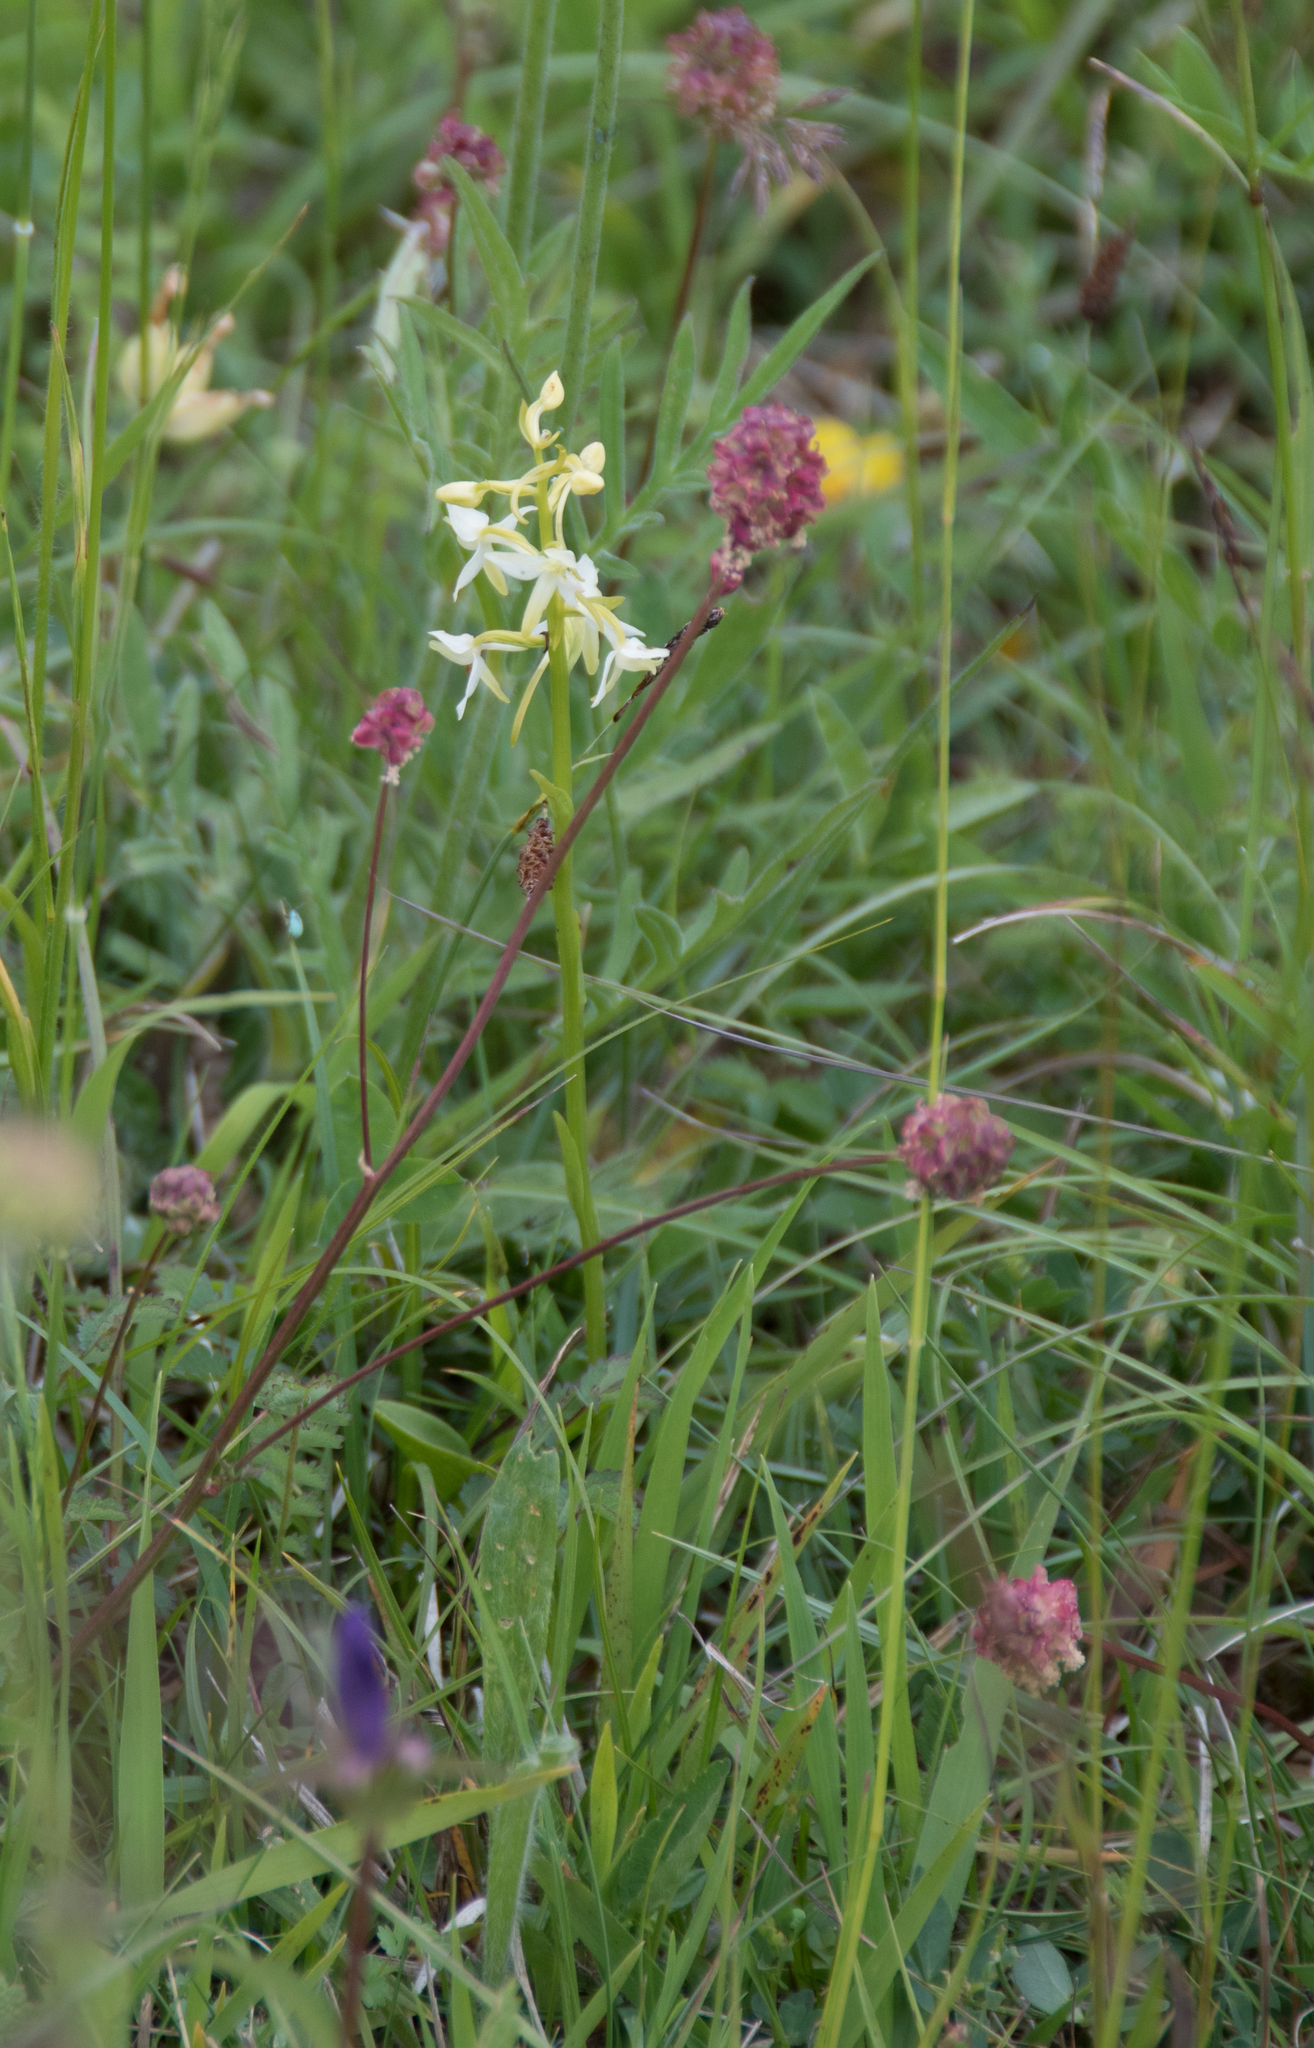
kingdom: Plantae
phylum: Tracheophyta
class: Liliopsida
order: Asparagales
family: Orchidaceae
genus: Platanthera
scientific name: Platanthera bifolia
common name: Lesser butterfly-orchid
